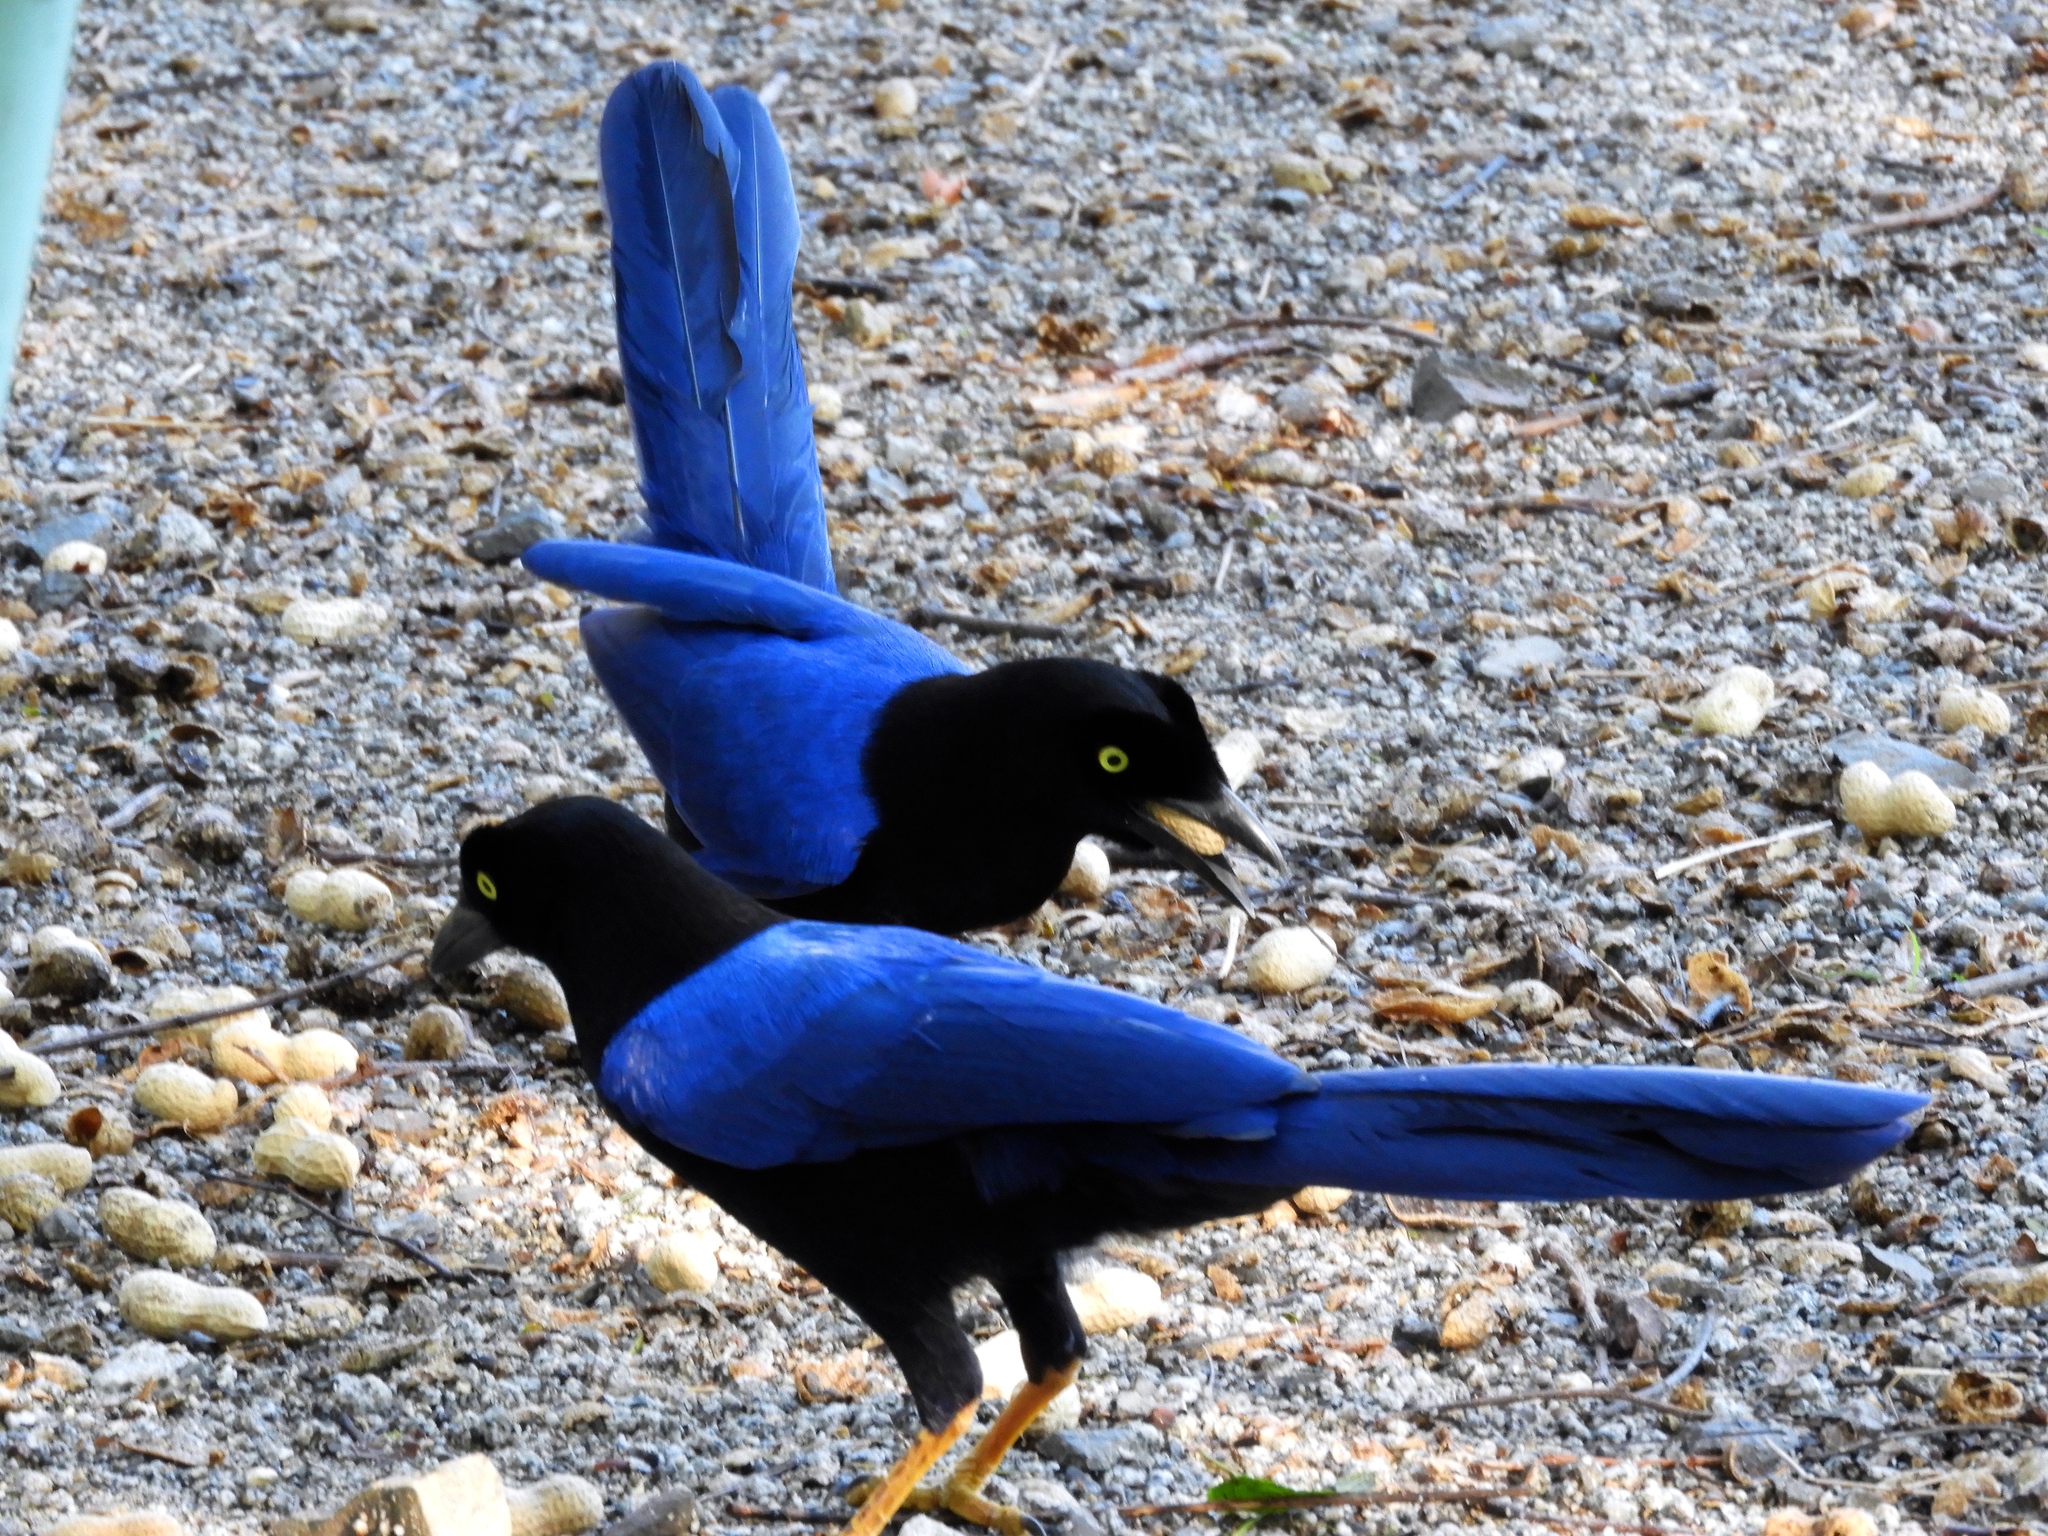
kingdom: Animalia
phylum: Chordata
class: Aves
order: Passeriformes
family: Corvidae
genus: Cyanocorax
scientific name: Cyanocorax beecheii
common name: Purplish-backed jay
